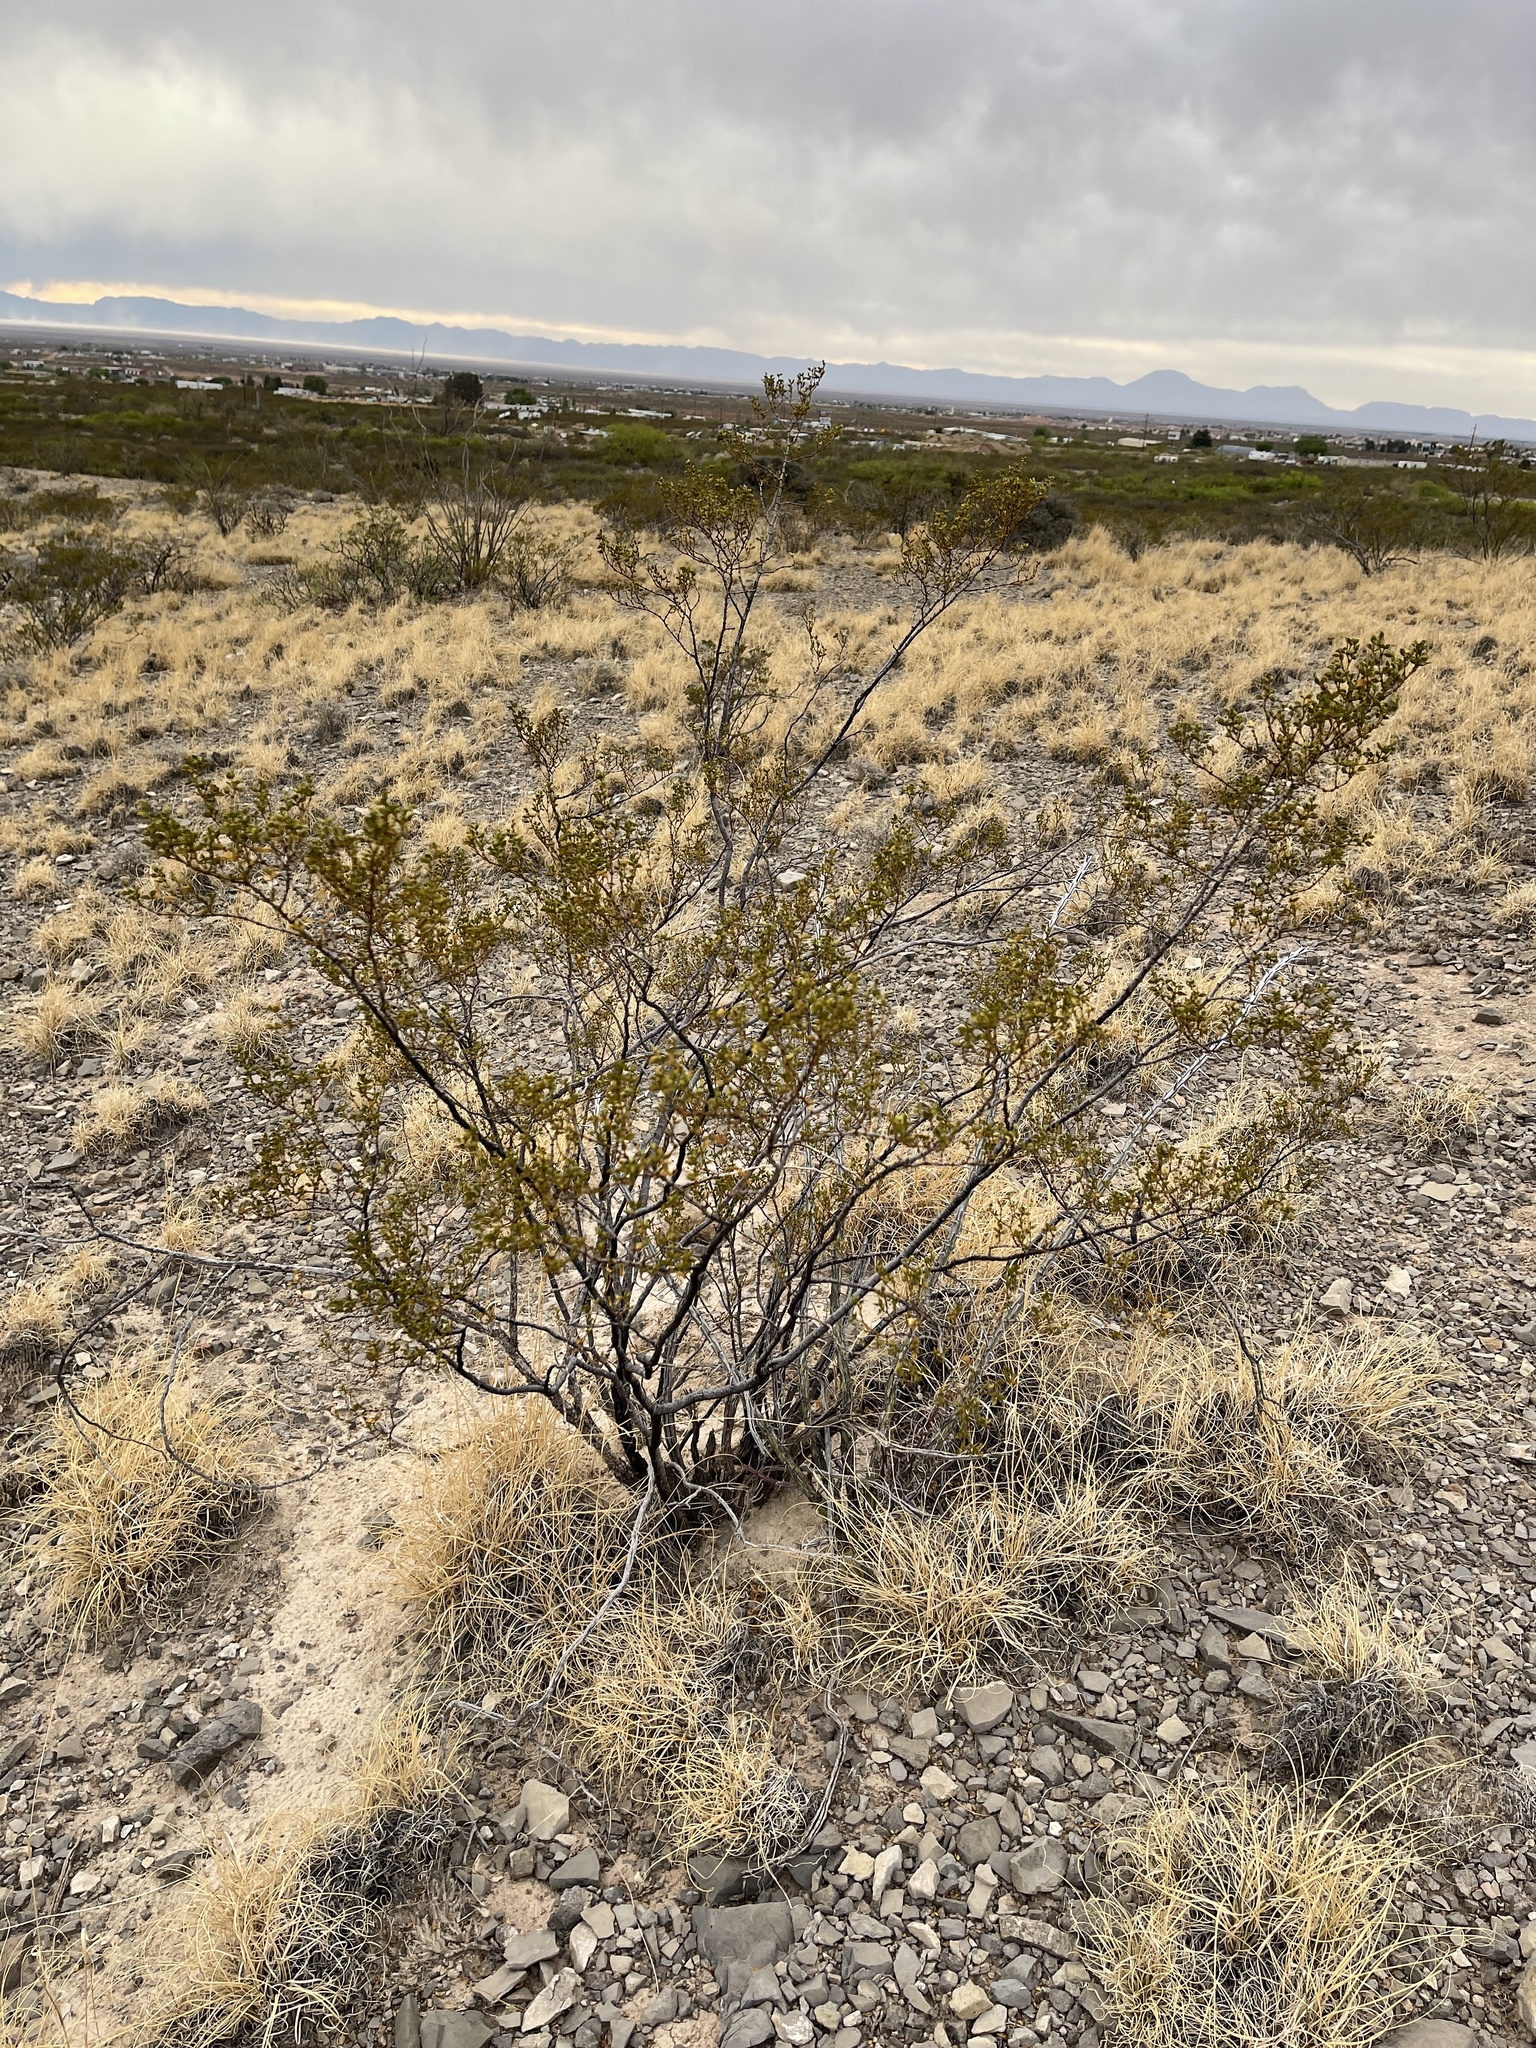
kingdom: Plantae
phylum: Tracheophyta
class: Magnoliopsida
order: Zygophyllales
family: Zygophyllaceae
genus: Larrea
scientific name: Larrea tridentata
